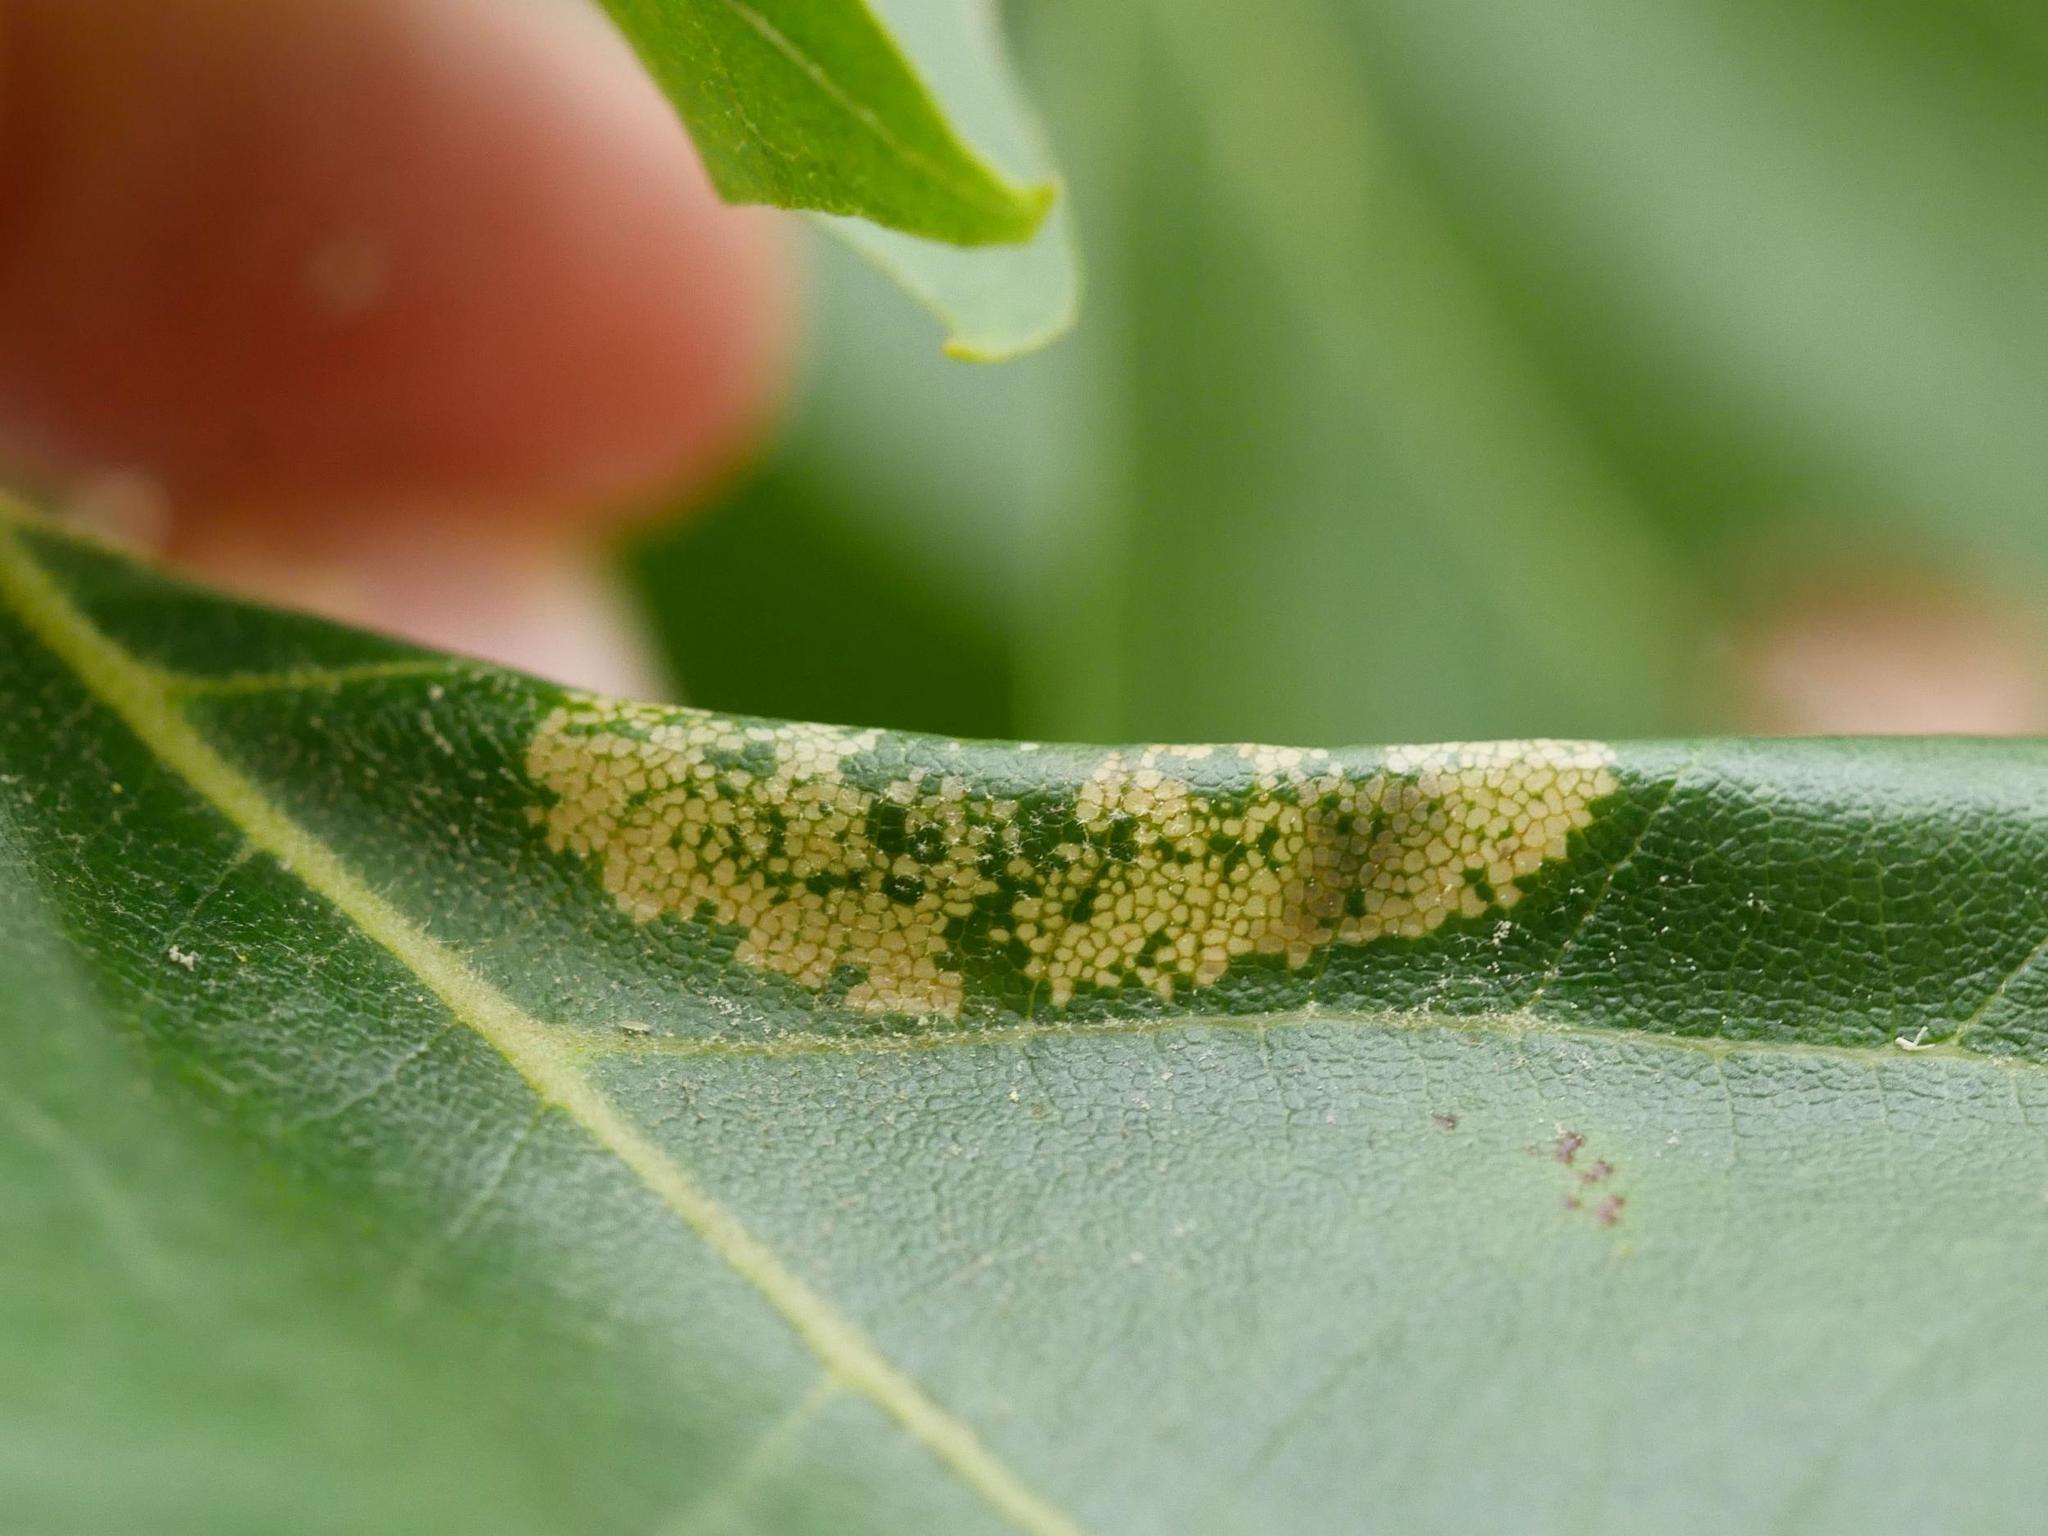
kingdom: Animalia
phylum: Arthropoda
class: Insecta
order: Lepidoptera
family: Gracillariidae
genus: Phyllonorycter
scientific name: Phyllonorycter platani
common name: London midget
